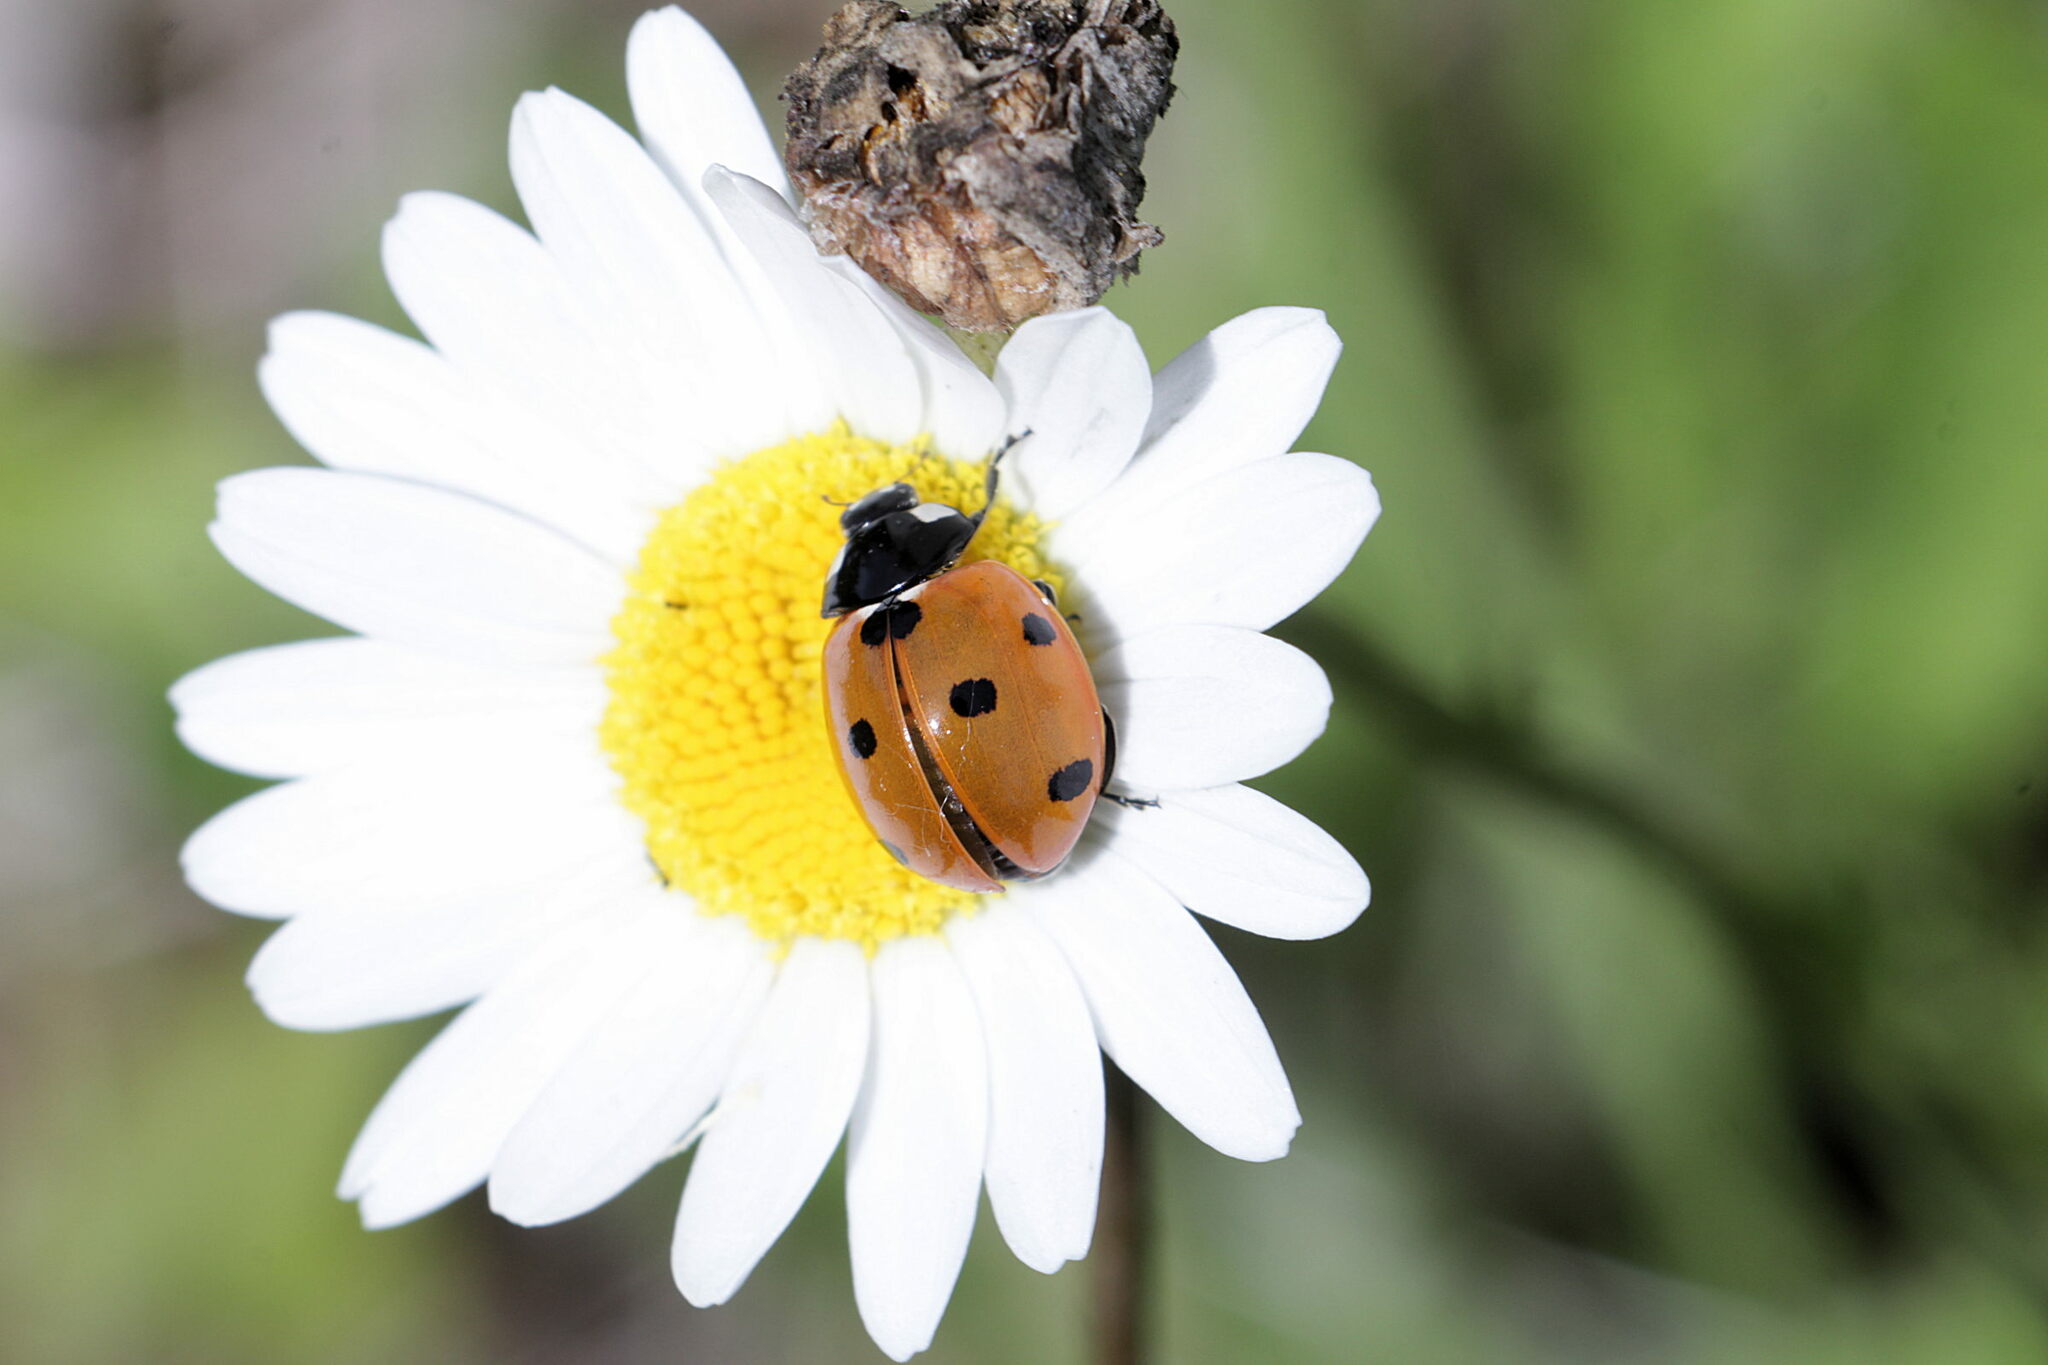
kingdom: Animalia
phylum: Arthropoda
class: Insecta
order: Coleoptera
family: Coccinellidae
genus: Coccinella
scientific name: Coccinella septempunctata
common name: Sevenspotted lady beetle
